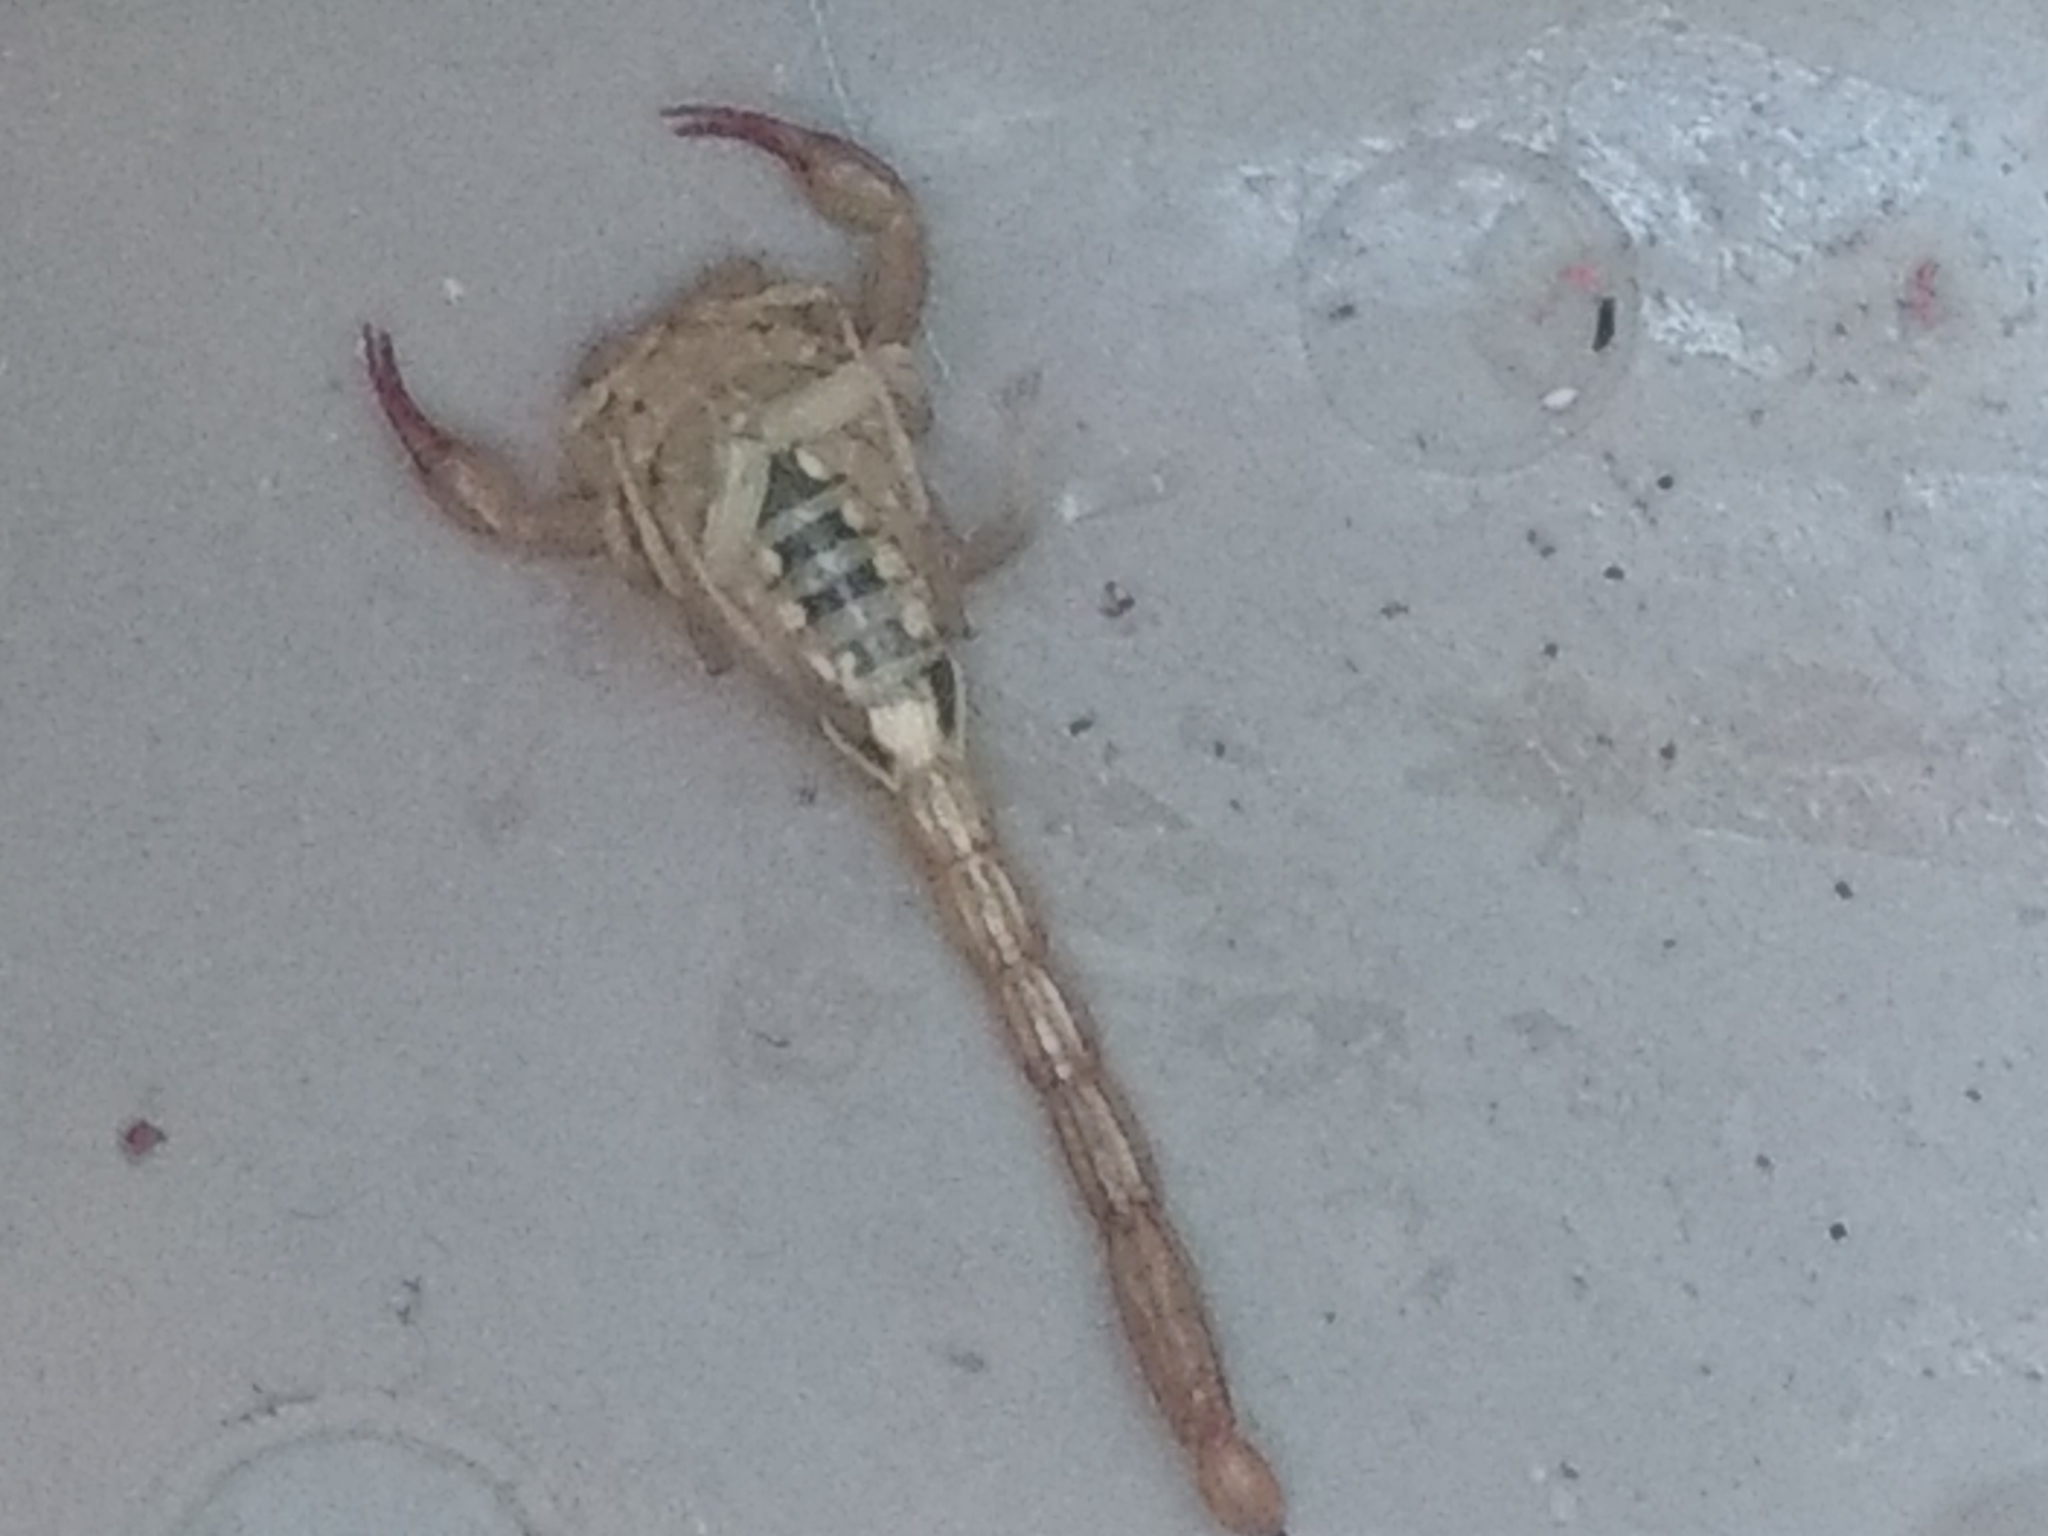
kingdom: Animalia
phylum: Arthropoda
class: Arachnida
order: Scorpiones
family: Vaejovidae
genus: Paruroctonus
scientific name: Paruroctonus silvestrii
